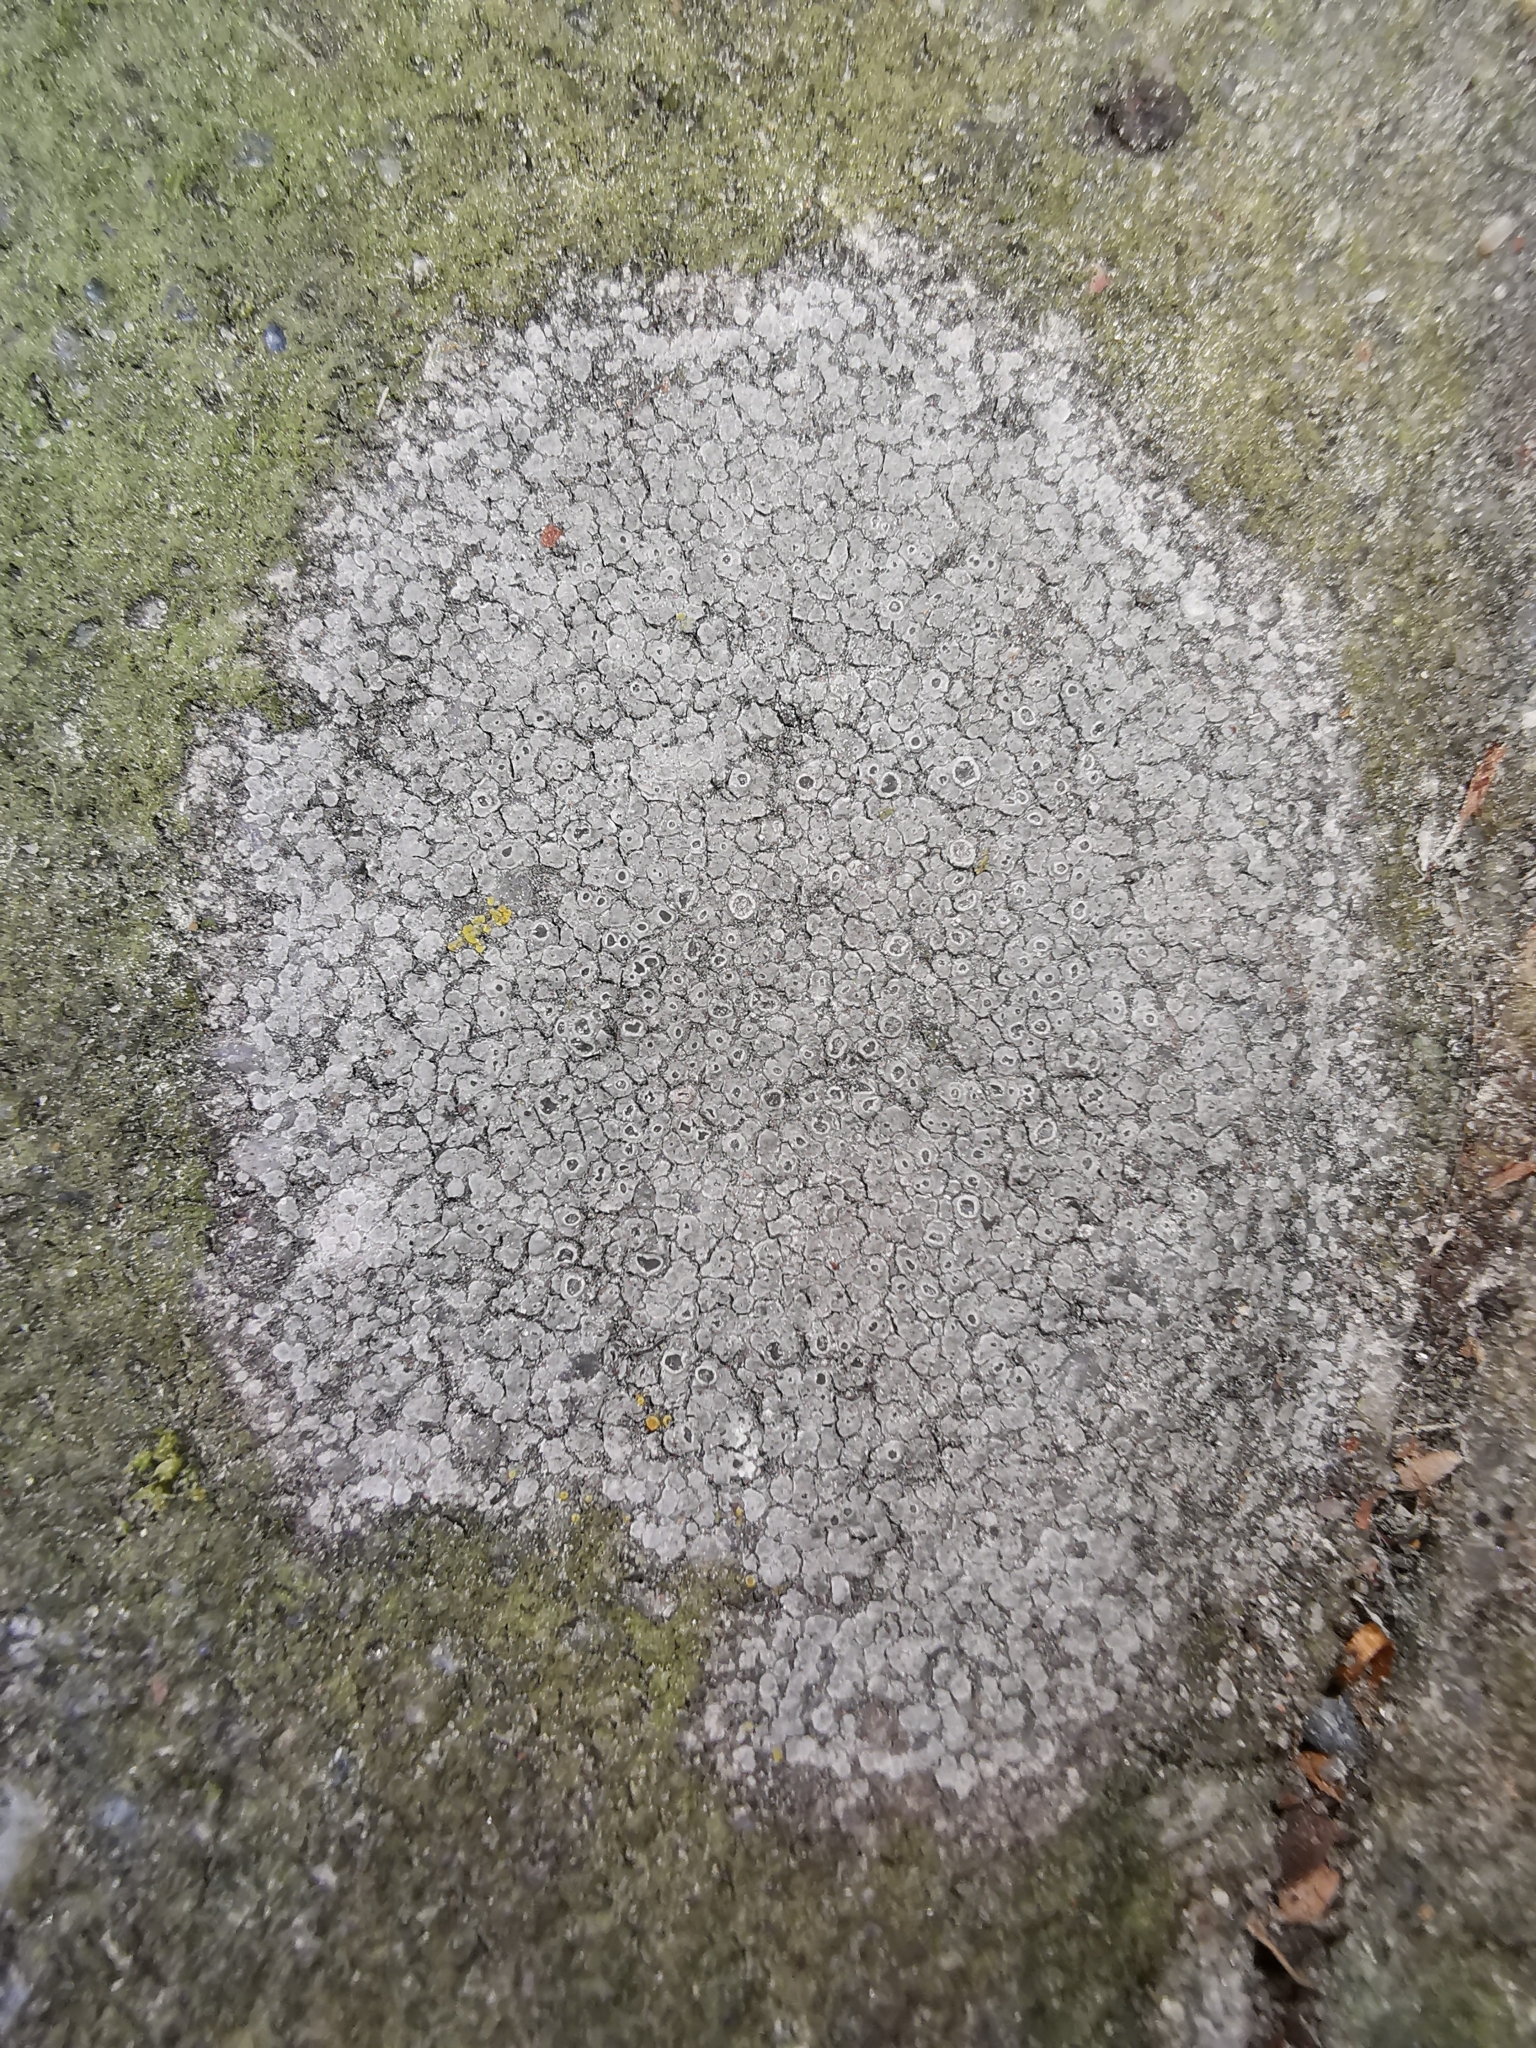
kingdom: Fungi
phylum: Ascomycota
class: Lecanoromycetes
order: Pertusariales
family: Megasporaceae
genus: Circinaria
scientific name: Circinaria contorta
